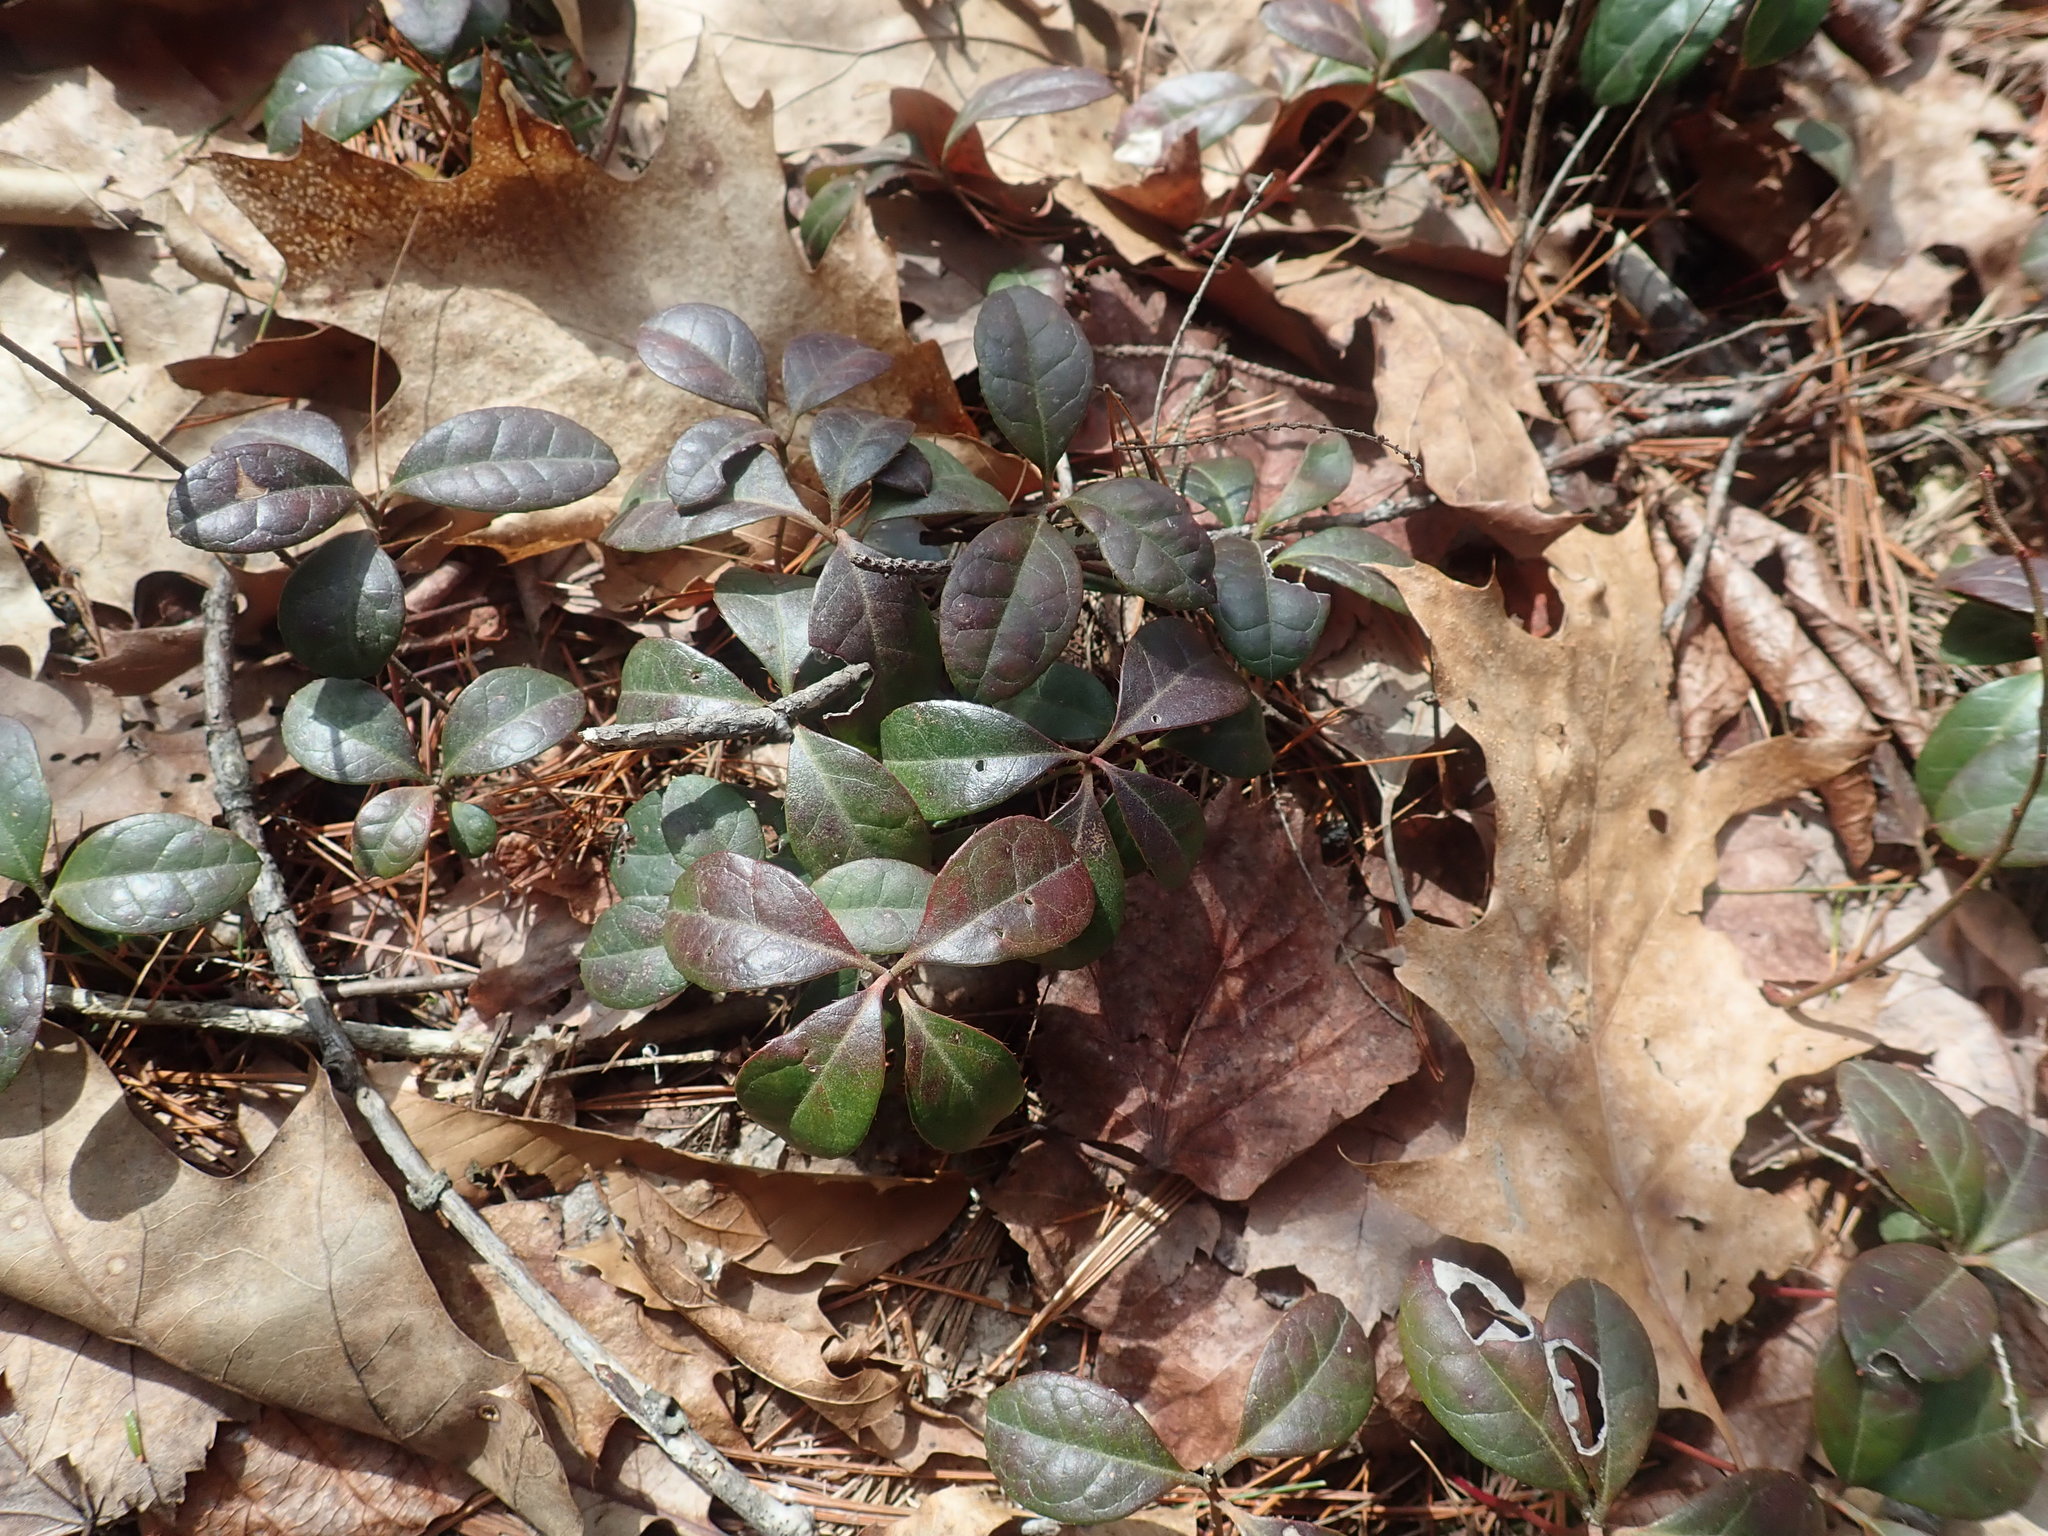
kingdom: Plantae
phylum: Tracheophyta
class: Magnoliopsida
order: Ericales
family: Ericaceae
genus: Gaultheria
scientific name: Gaultheria procumbens
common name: Checkerberry
